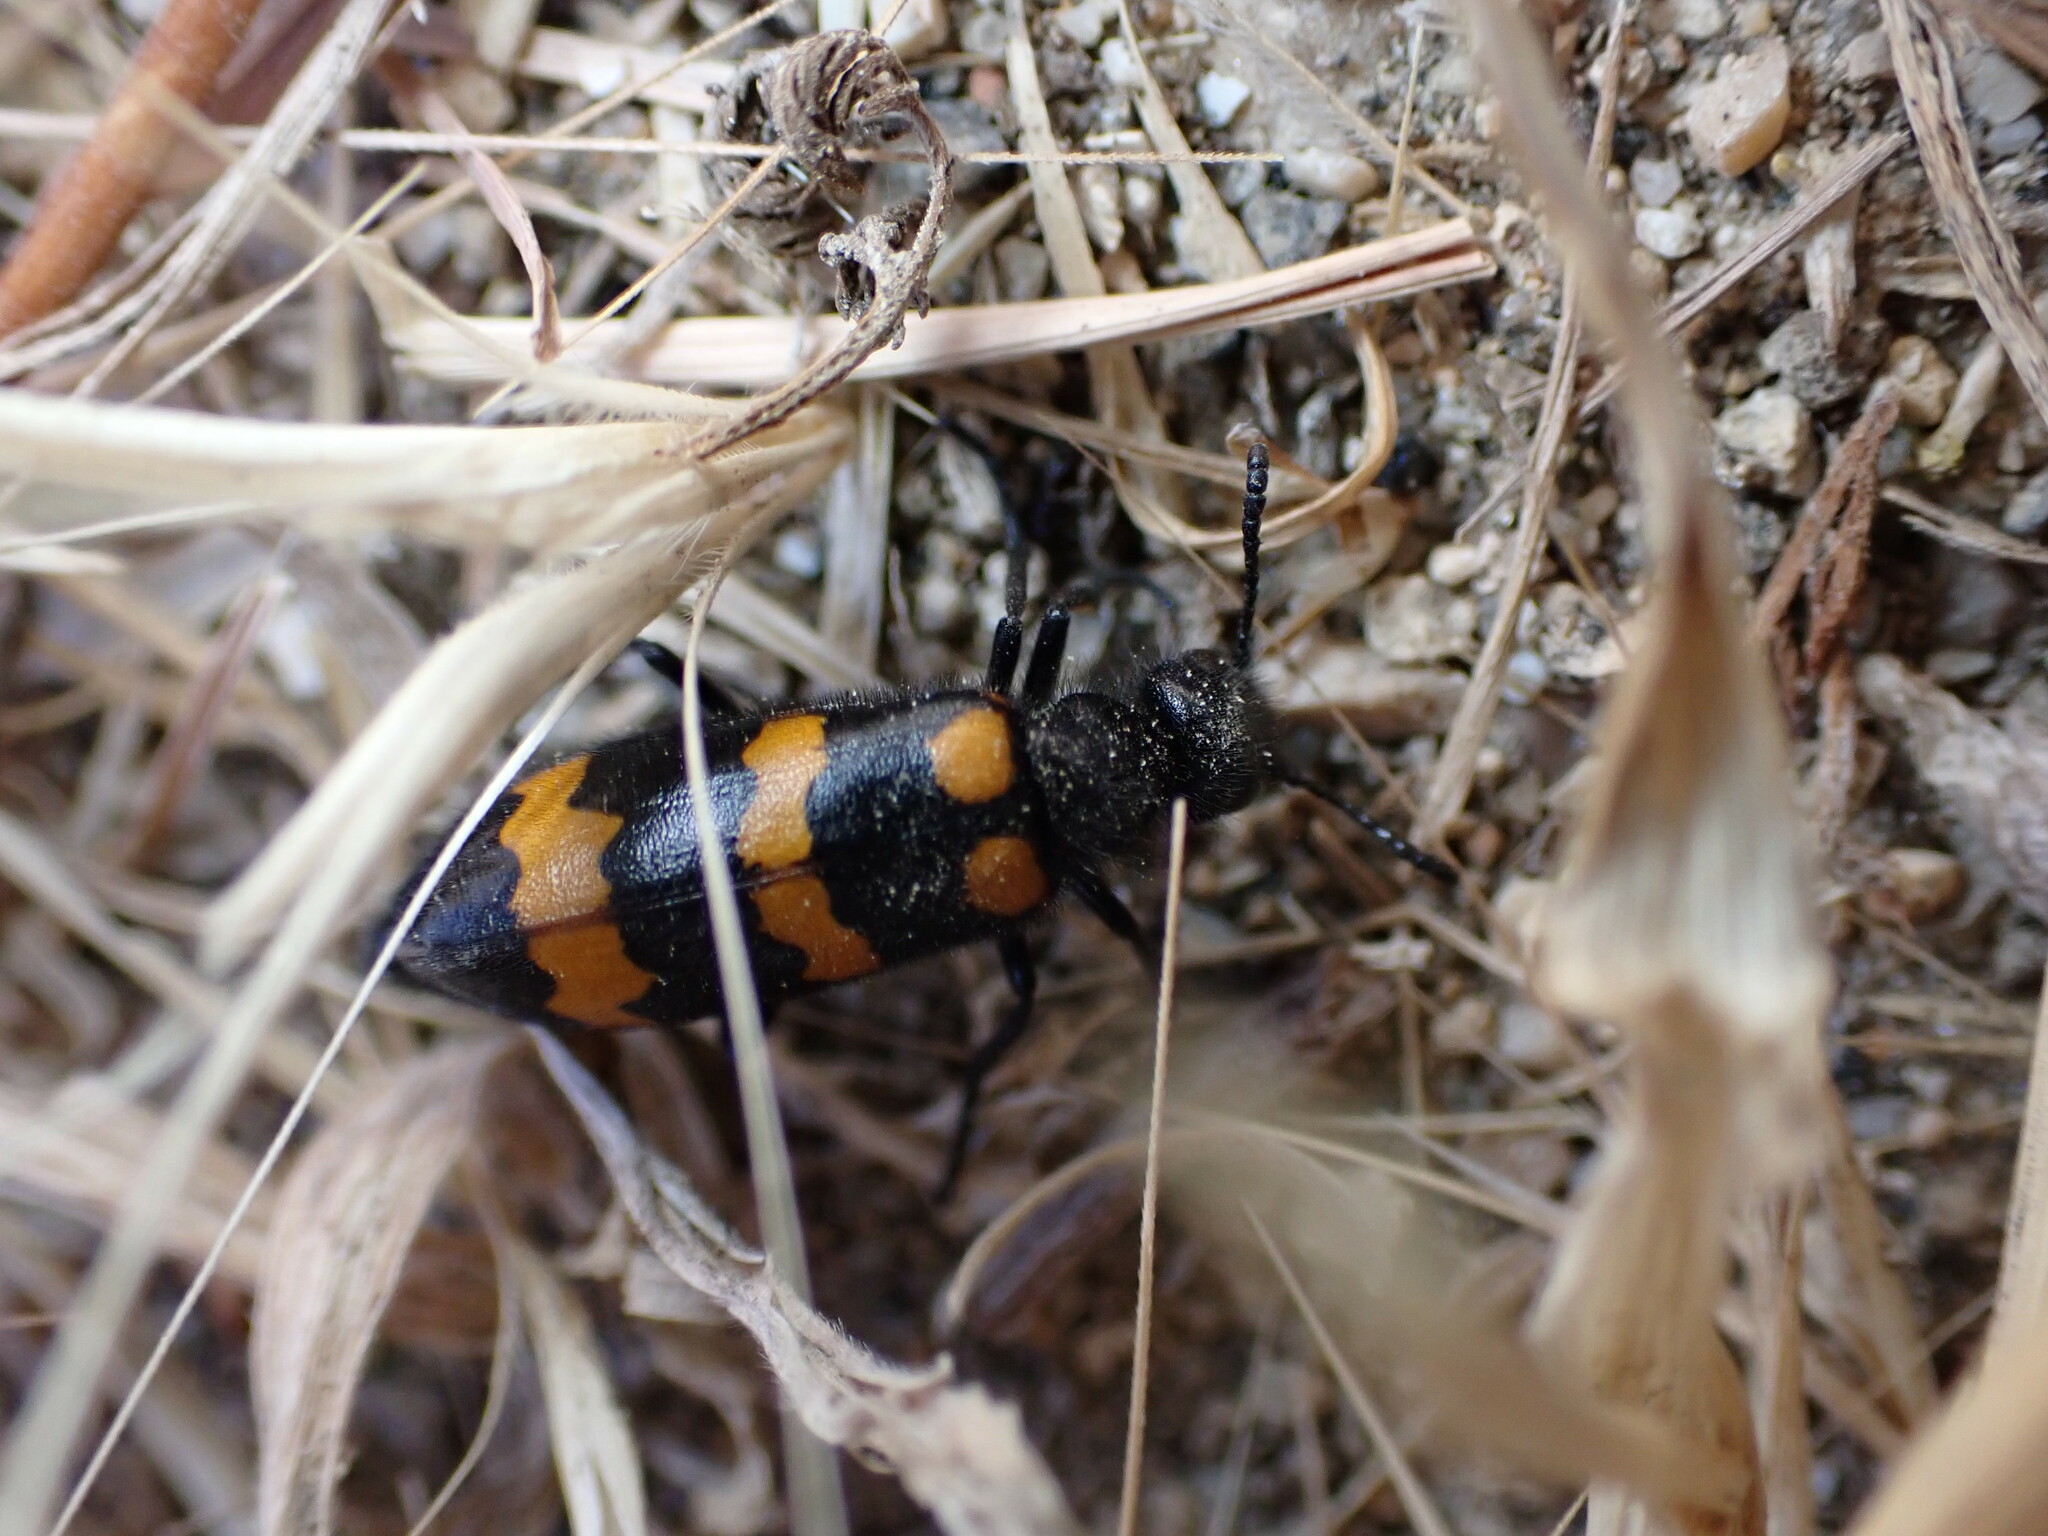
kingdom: Animalia
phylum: Arthropoda
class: Insecta
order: Coleoptera
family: Meloidae
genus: Mylabris
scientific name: Mylabris variabilis
